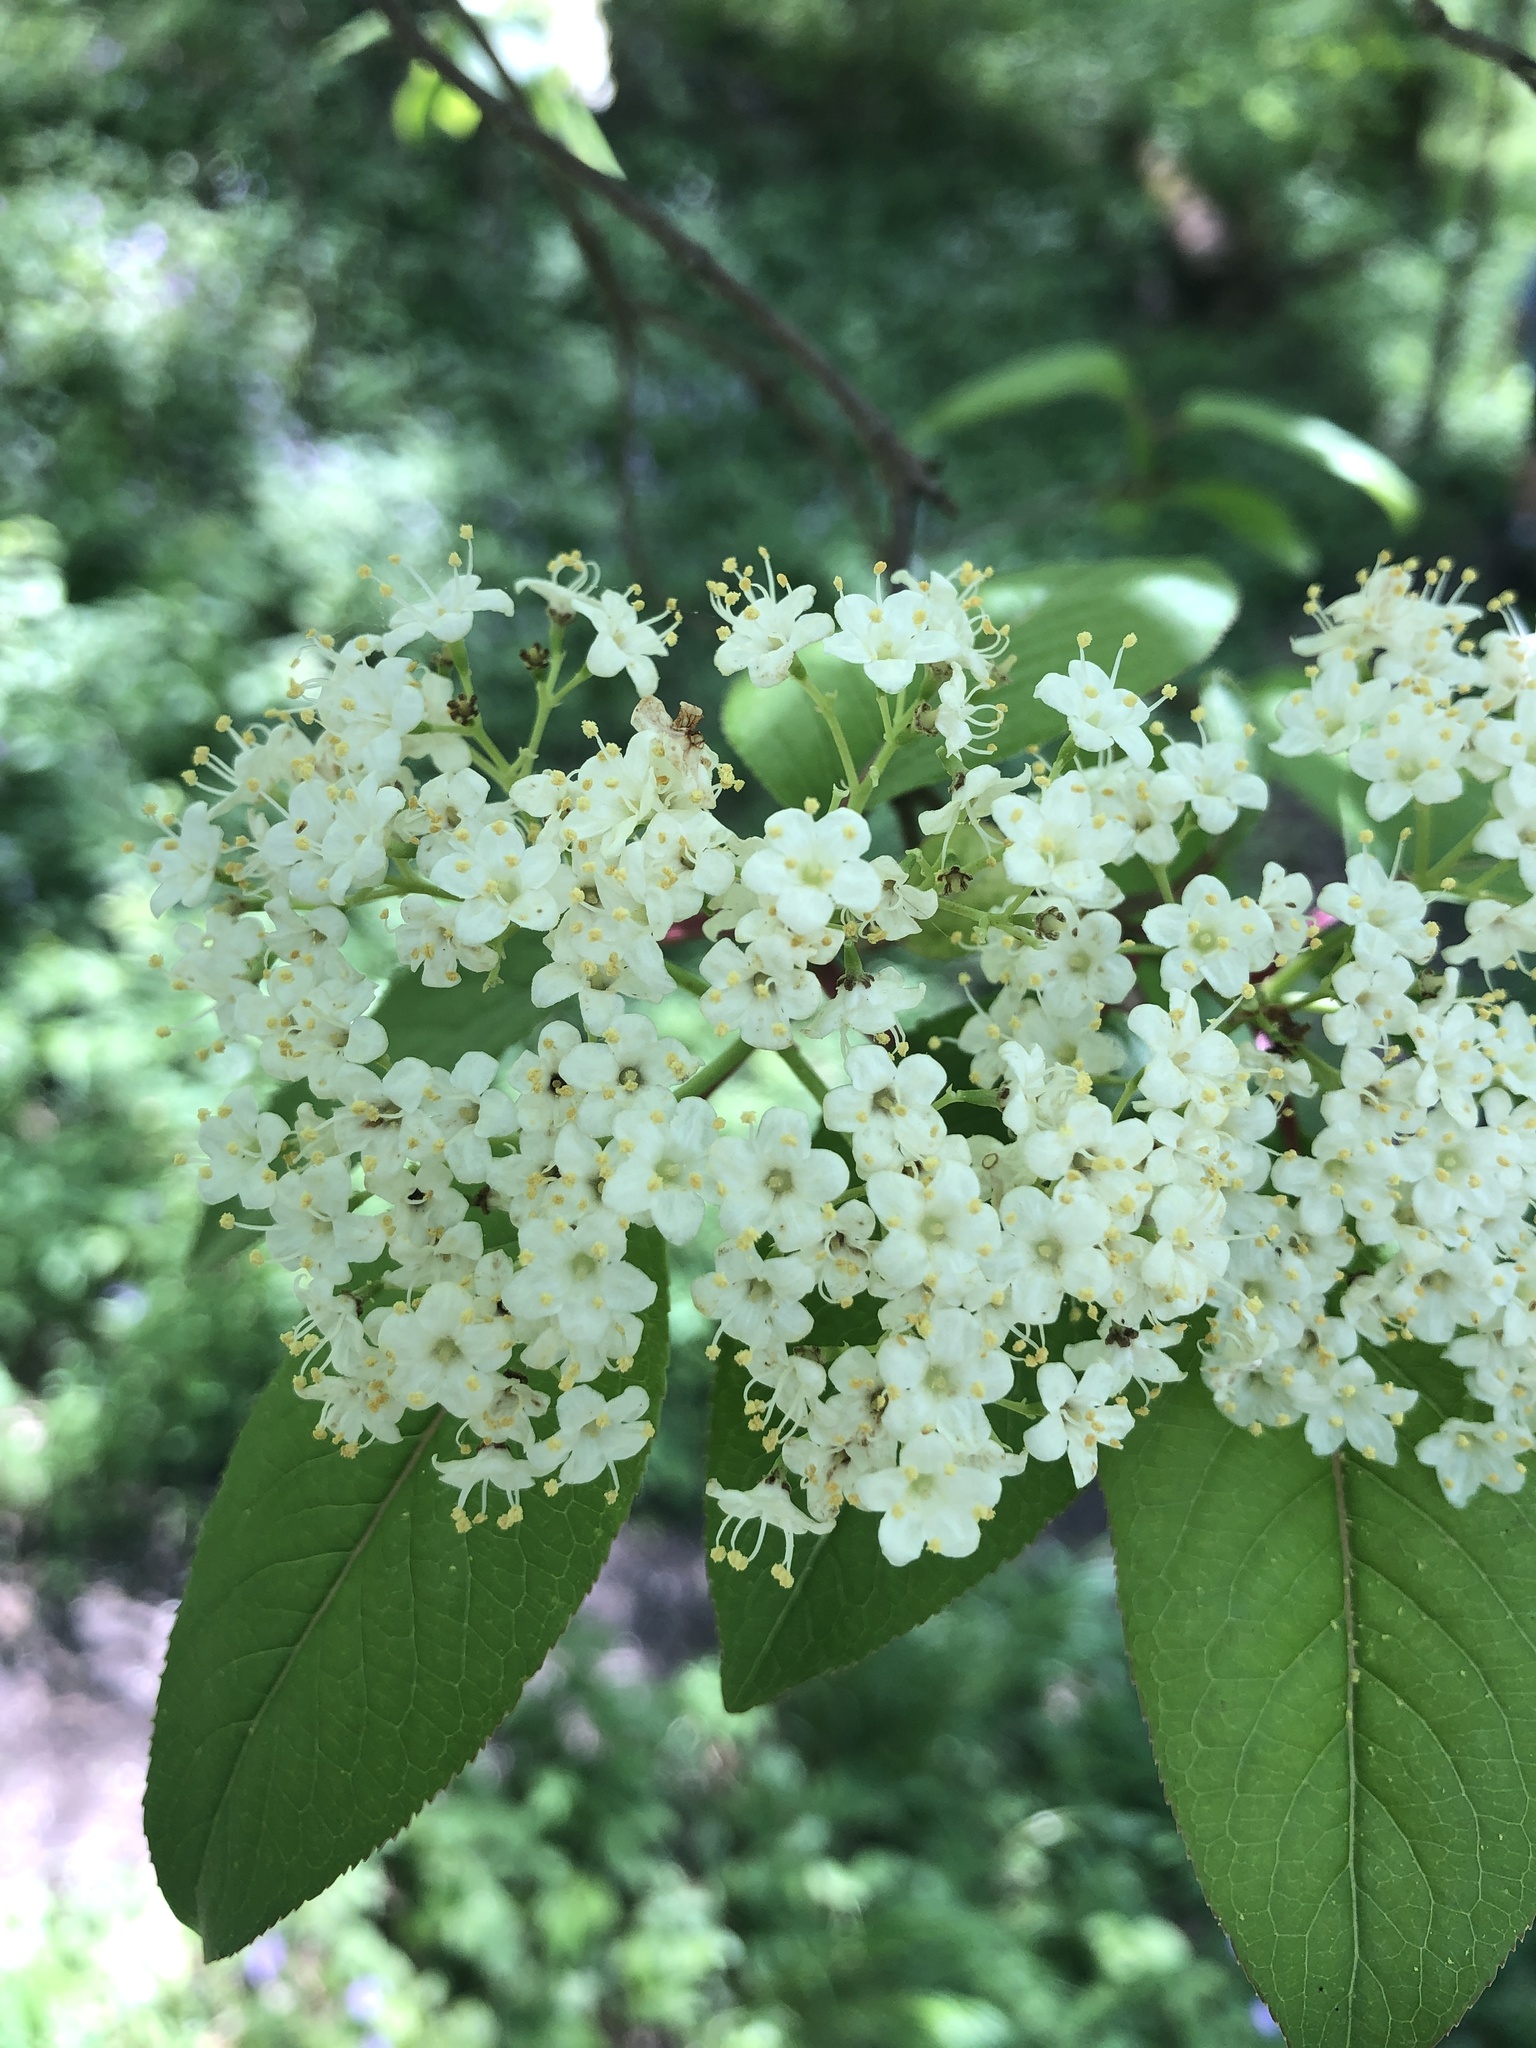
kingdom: Plantae
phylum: Tracheophyta
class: Magnoliopsida
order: Dipsacales
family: Viburnaceae
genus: Viburnum
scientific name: Viburnum prunifolium
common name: Black haw
